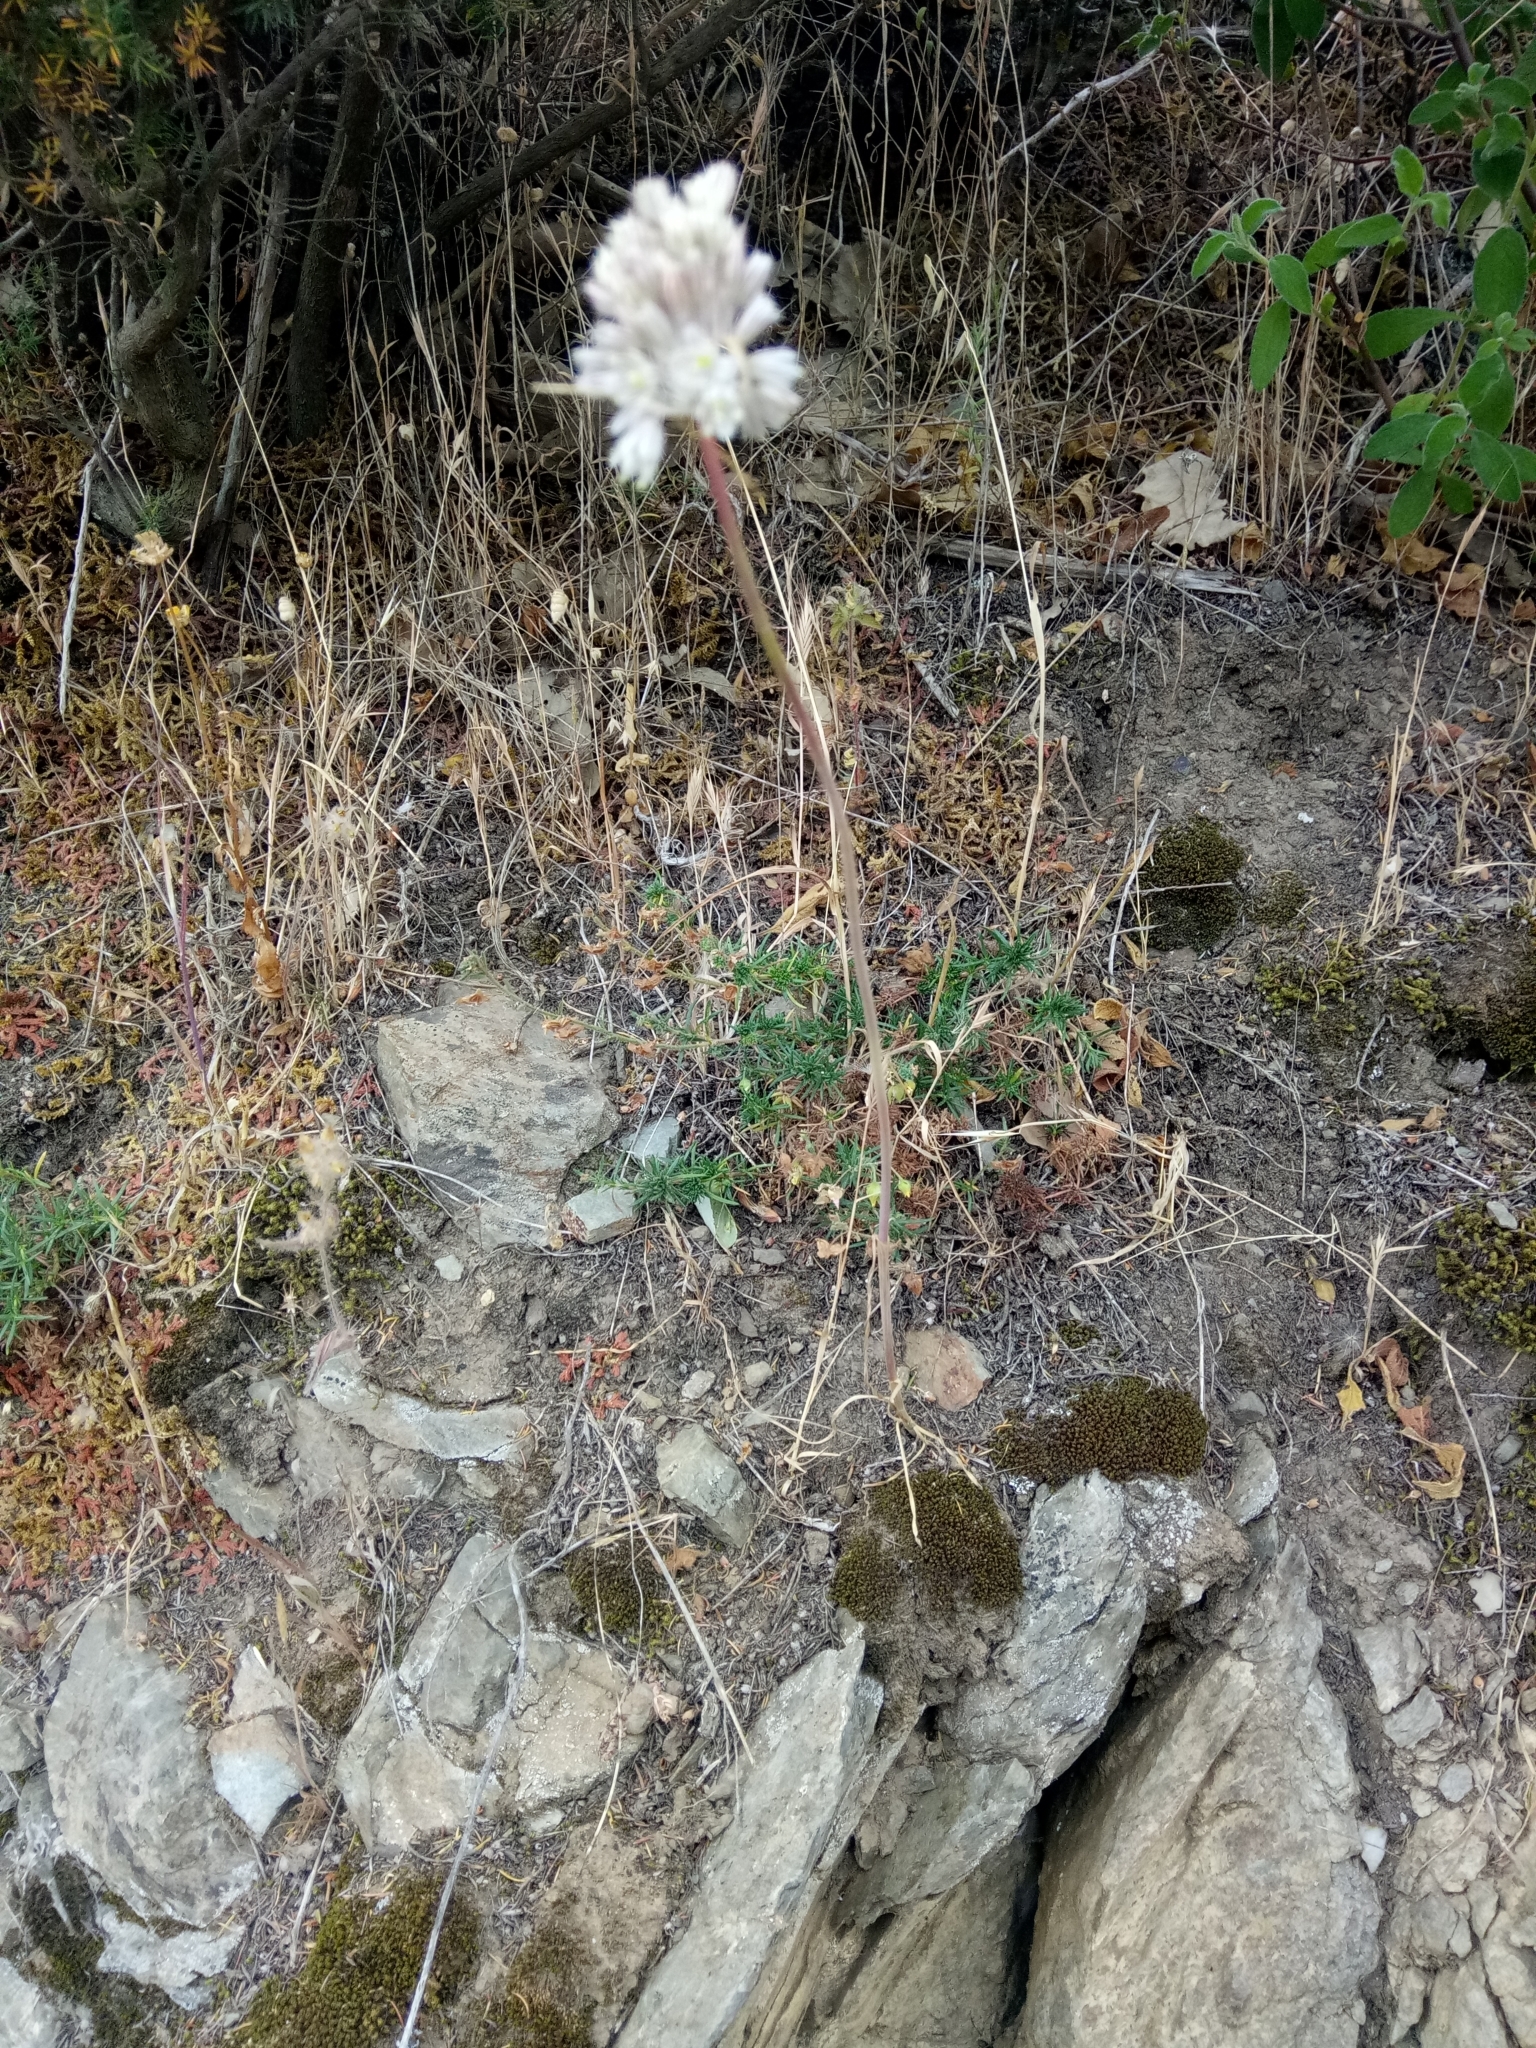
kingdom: Plantae
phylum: Tracheophyta
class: Liliopsida
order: Asparagales
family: Amaryllidaceae
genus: Allium
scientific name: Allium antiatlanticum
